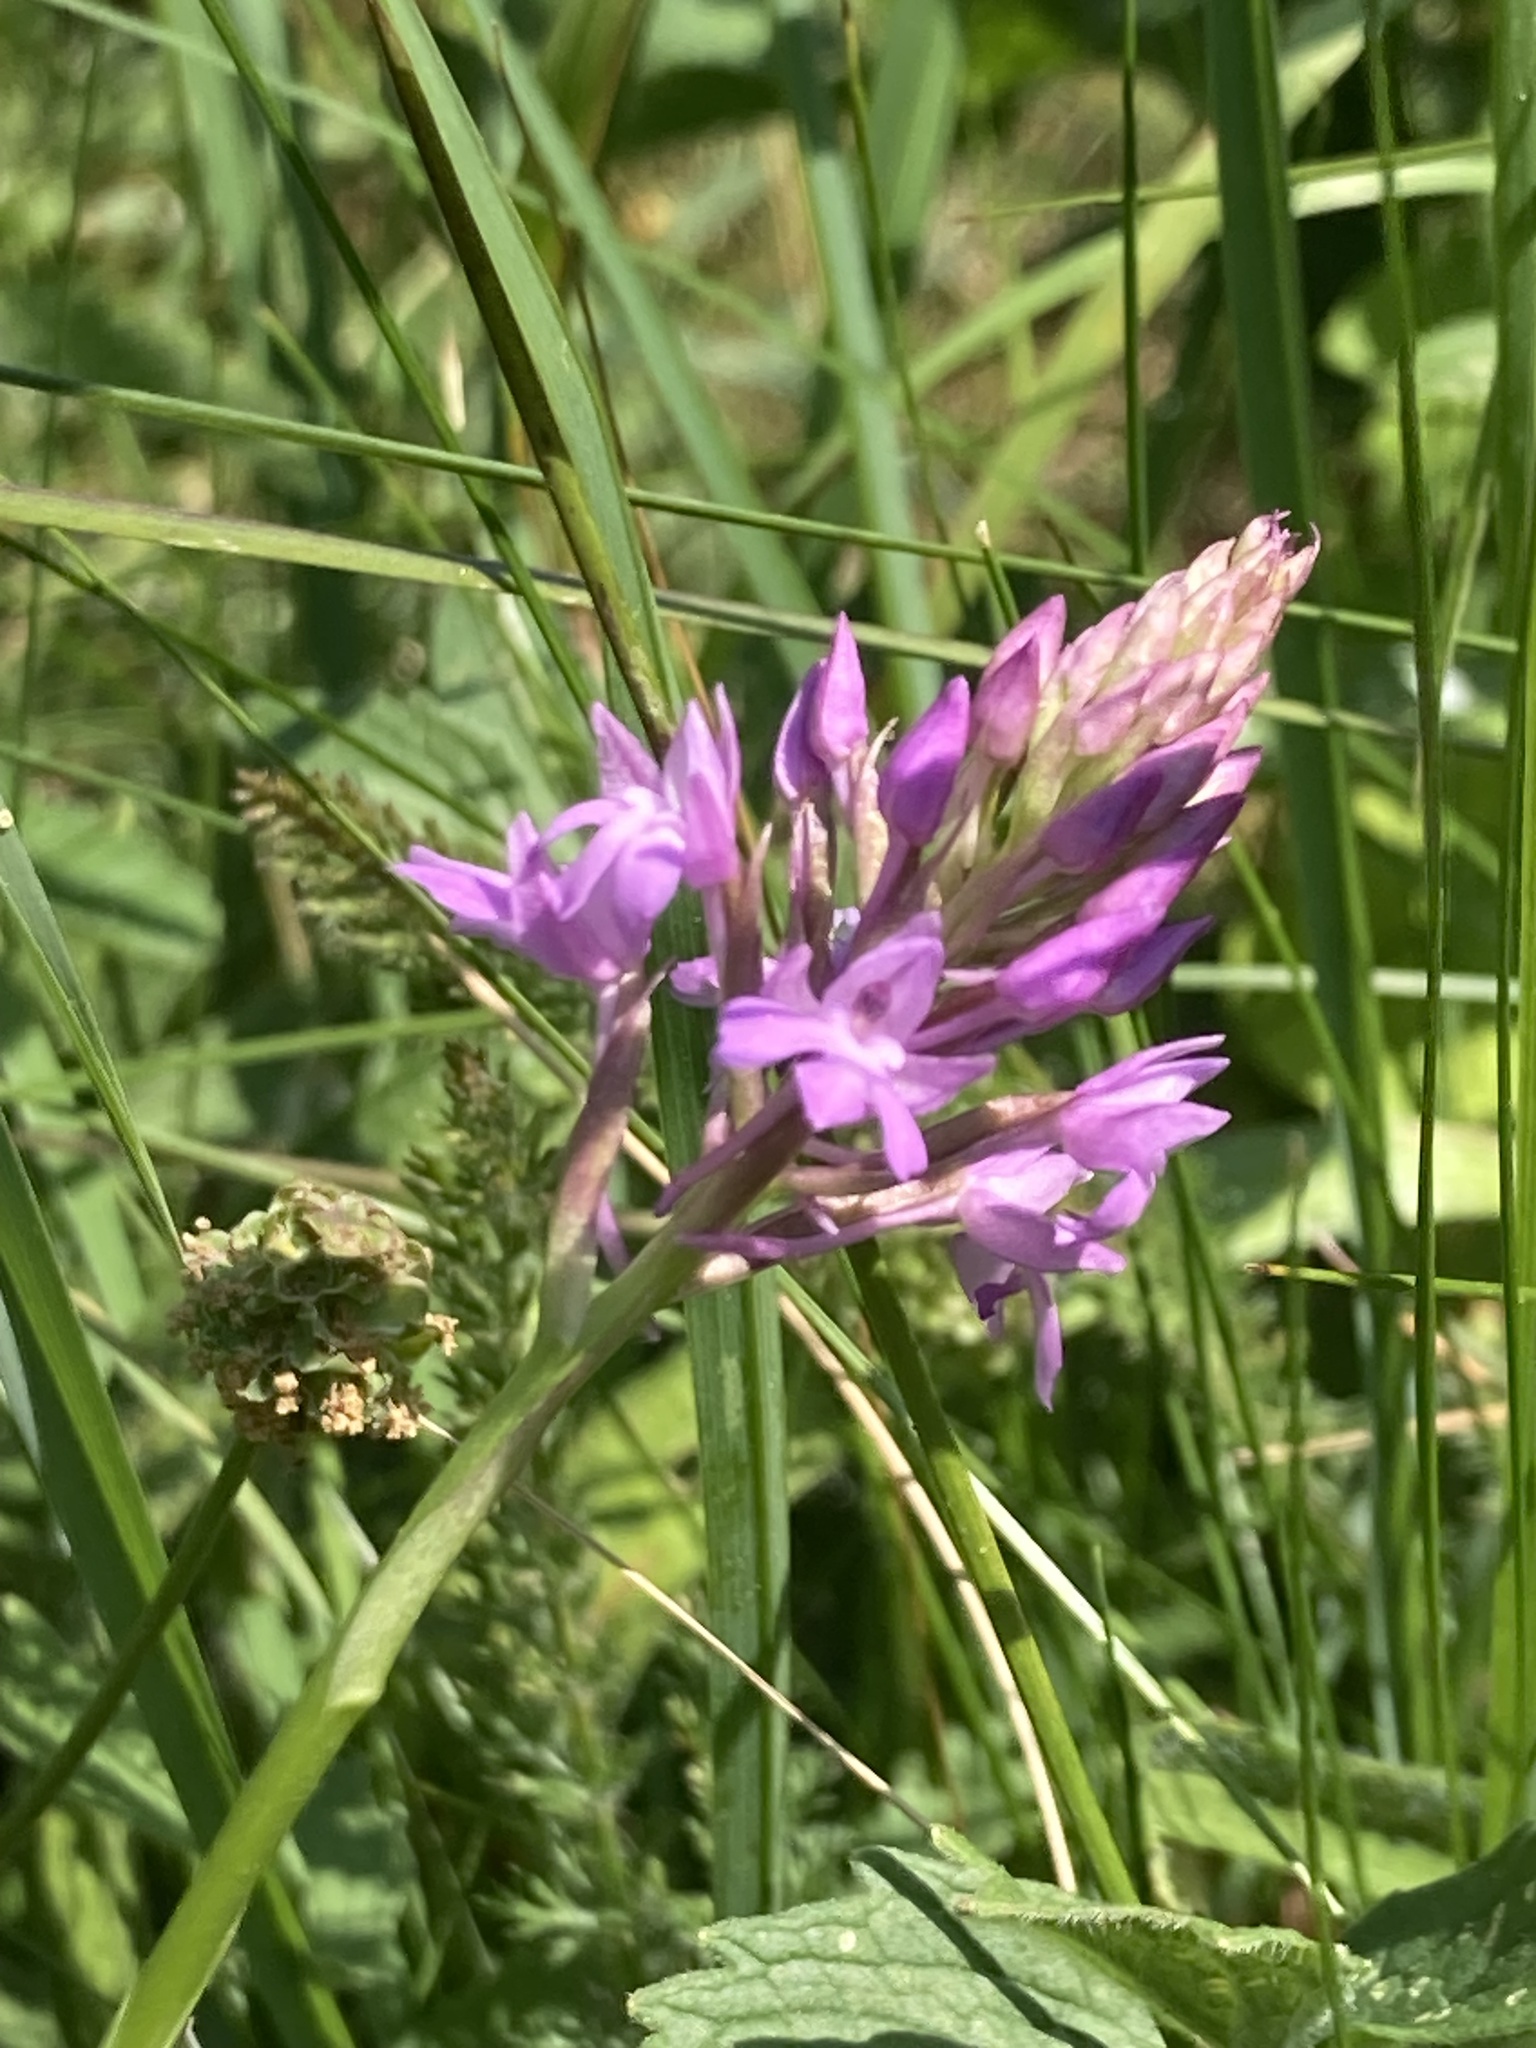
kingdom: Plantae
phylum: Tracheophyta
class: Liliopsida
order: Asparagales
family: Orchidaceae
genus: Anacamptis
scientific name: Anacamptis pyramidalis
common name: Pyramidal orchid
